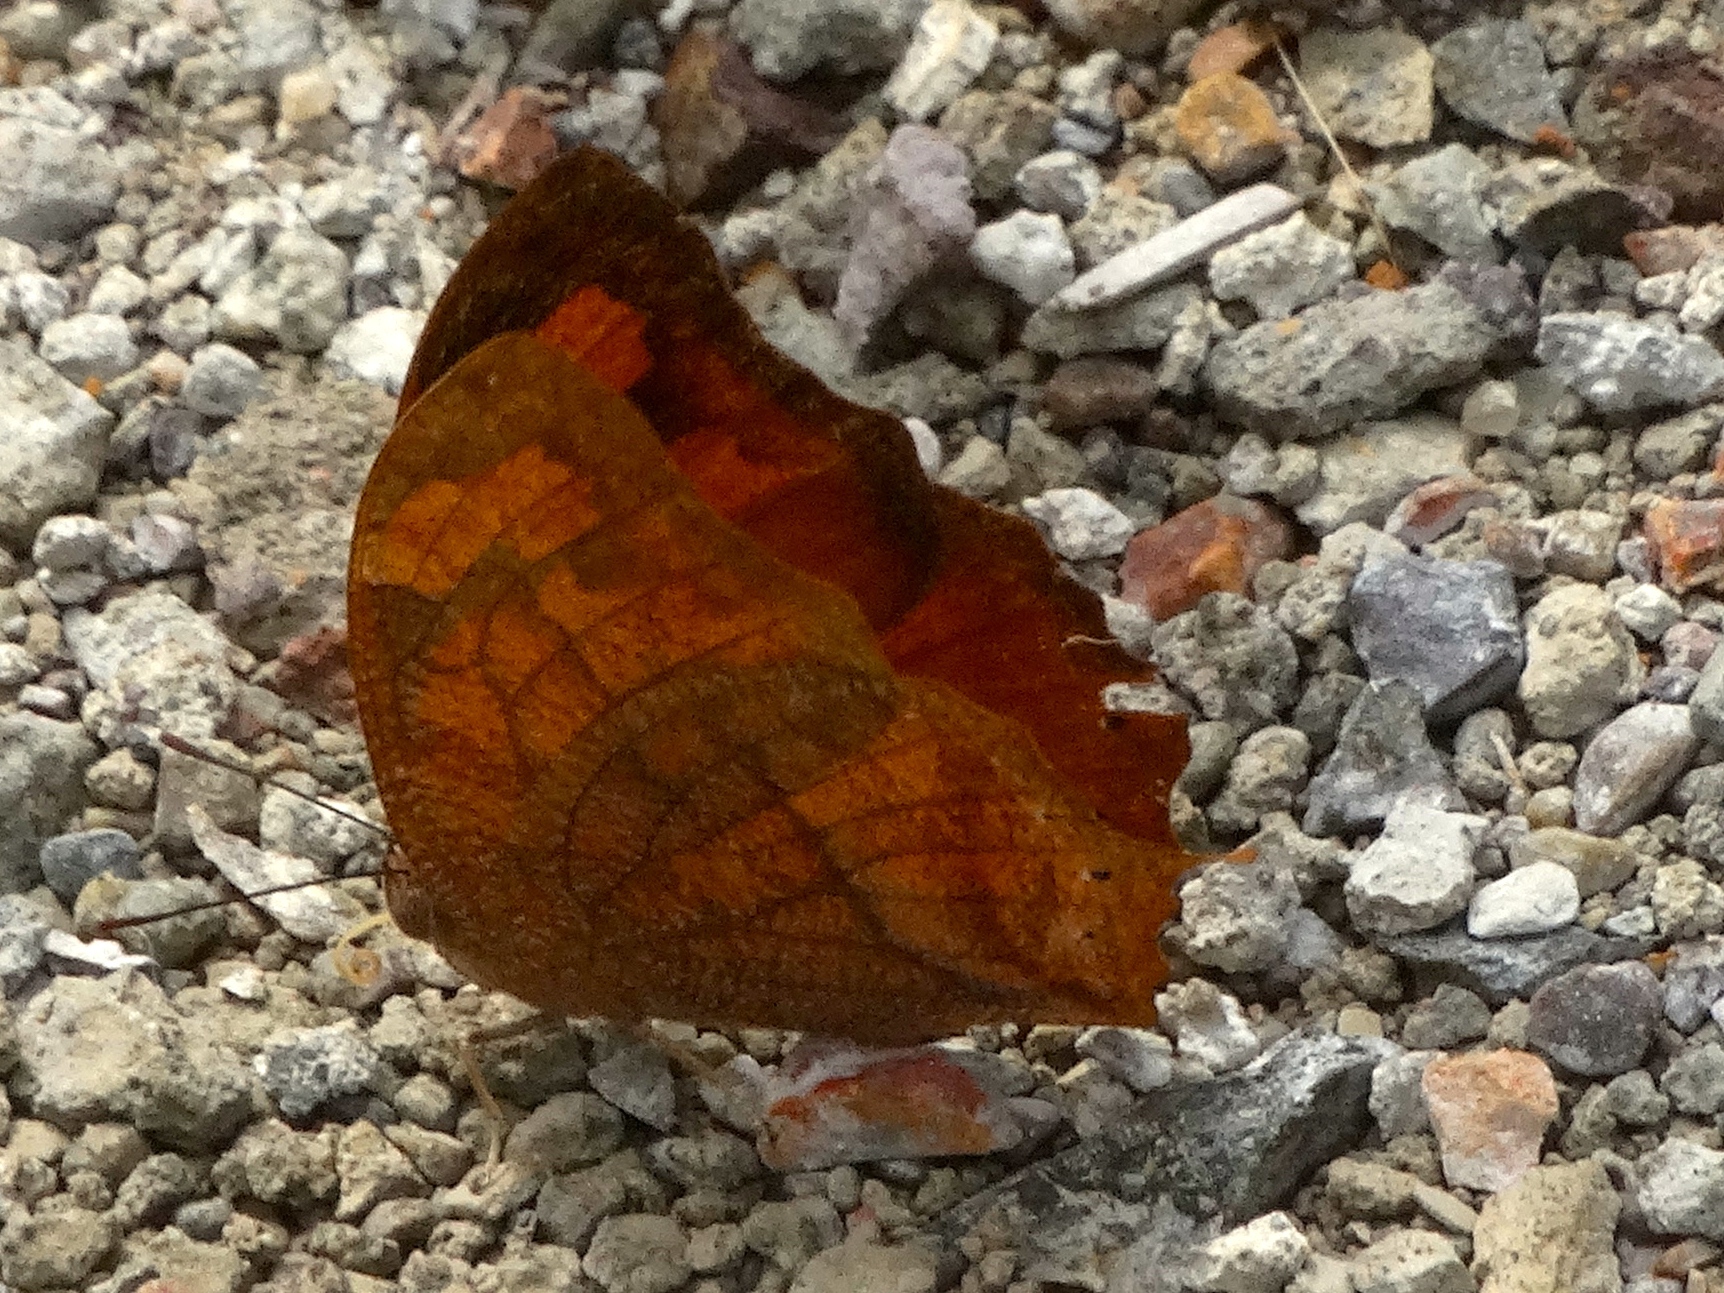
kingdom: Animalia
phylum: Arthropoda
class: Insecta
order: Lepidoptera
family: Nymphalidae
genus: Fountainea
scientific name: Fountainea
